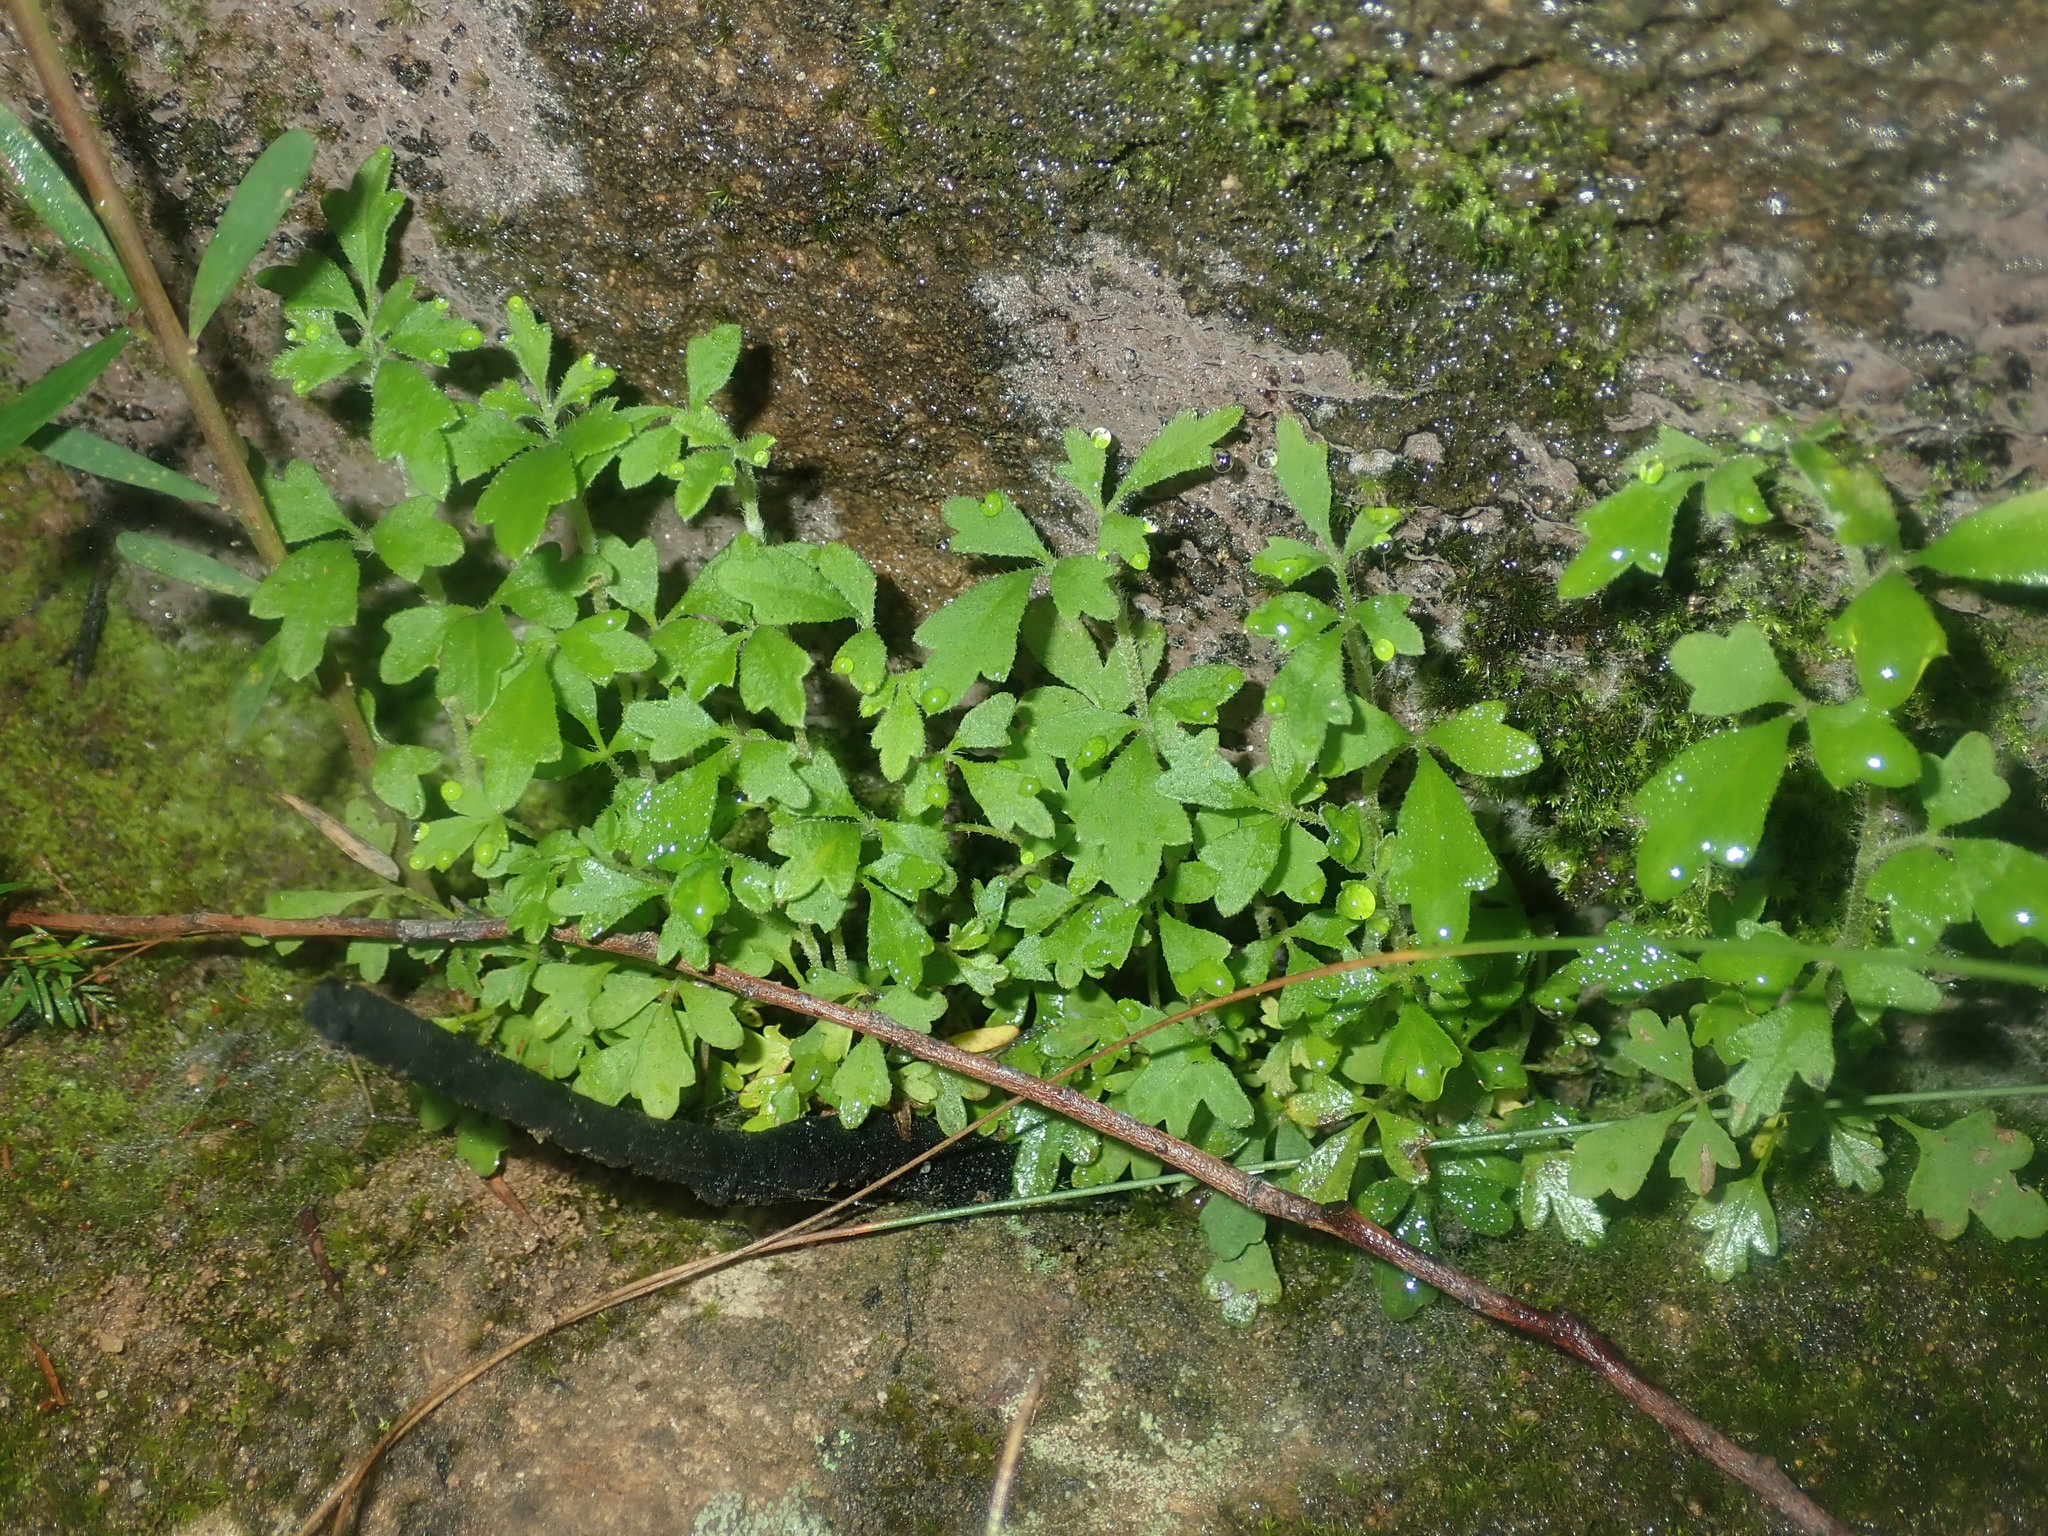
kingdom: Plantae
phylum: Tracheophyta
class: Magnoliopsida
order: Apiales
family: Apiaceae
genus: Xanthosia
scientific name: Xanthosia pilosa
